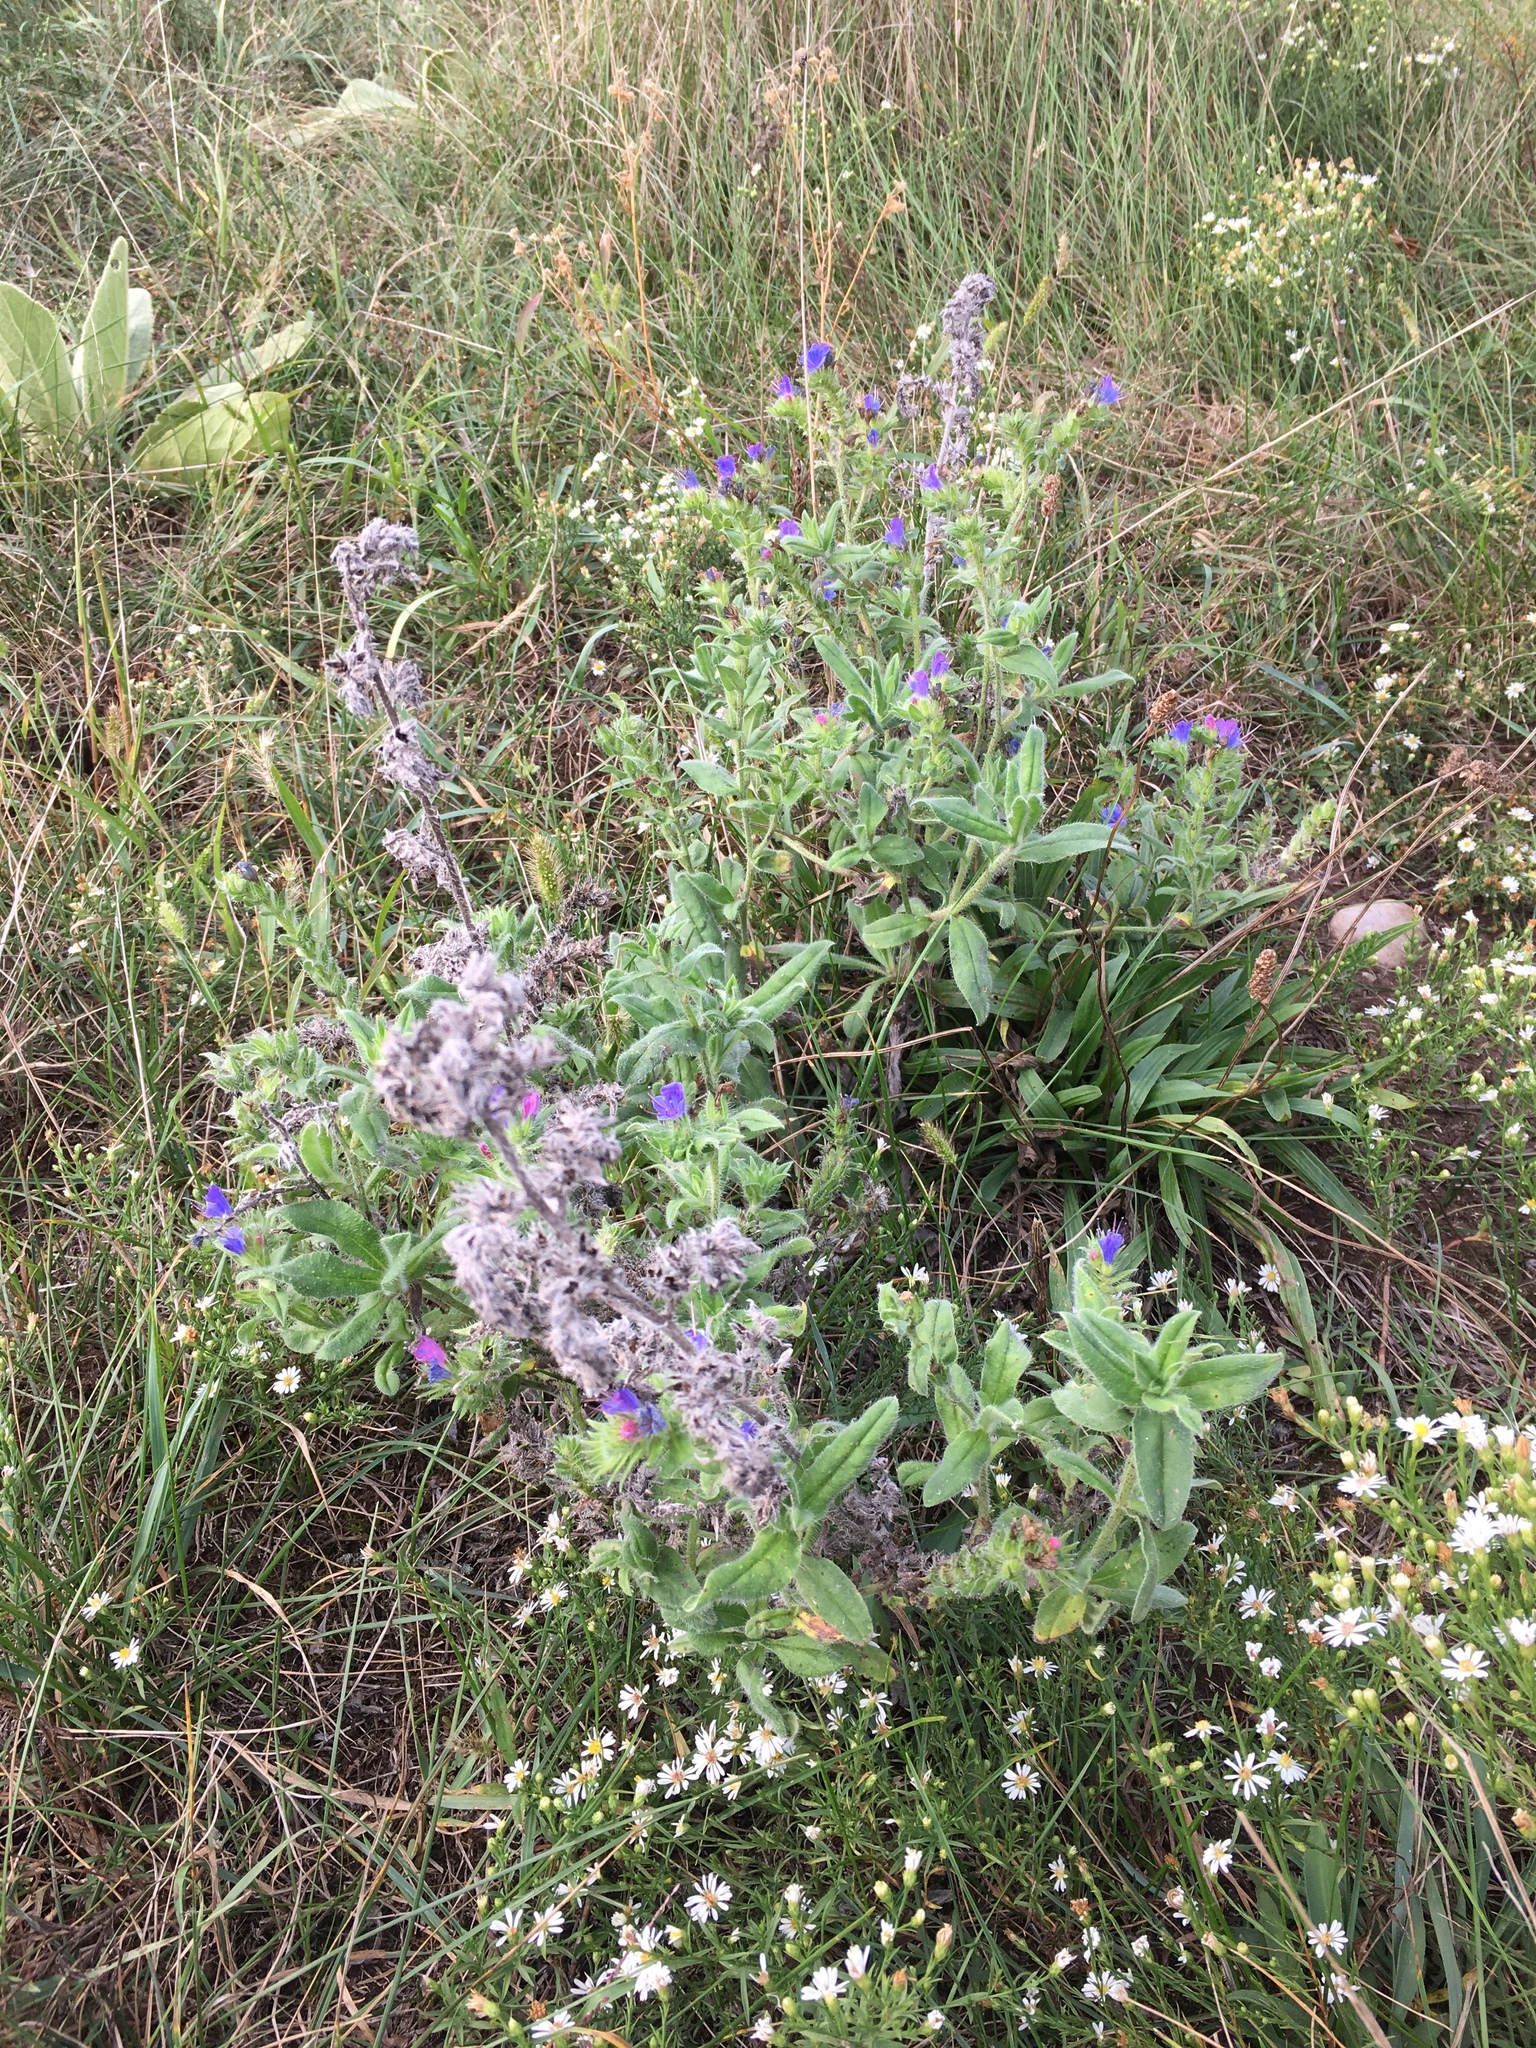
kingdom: Plantae
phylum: Tracheophyta
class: Magnoliopsida
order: Boraginales
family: Boraginaceae
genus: Echium
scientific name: Echium vulgare
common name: Common viper's bugloss
